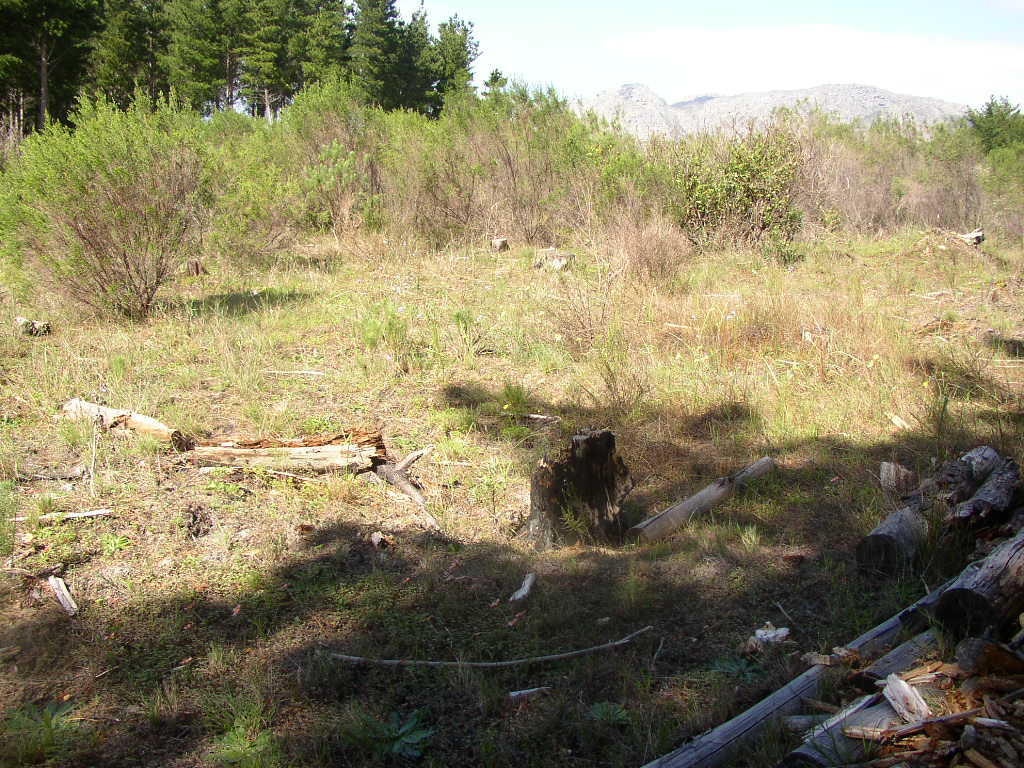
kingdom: Plantae
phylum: Tracheophyta
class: Magnoliopsida
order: Malvales
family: Thymelaeaceae
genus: Passerina
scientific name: Passerina corymbosa
